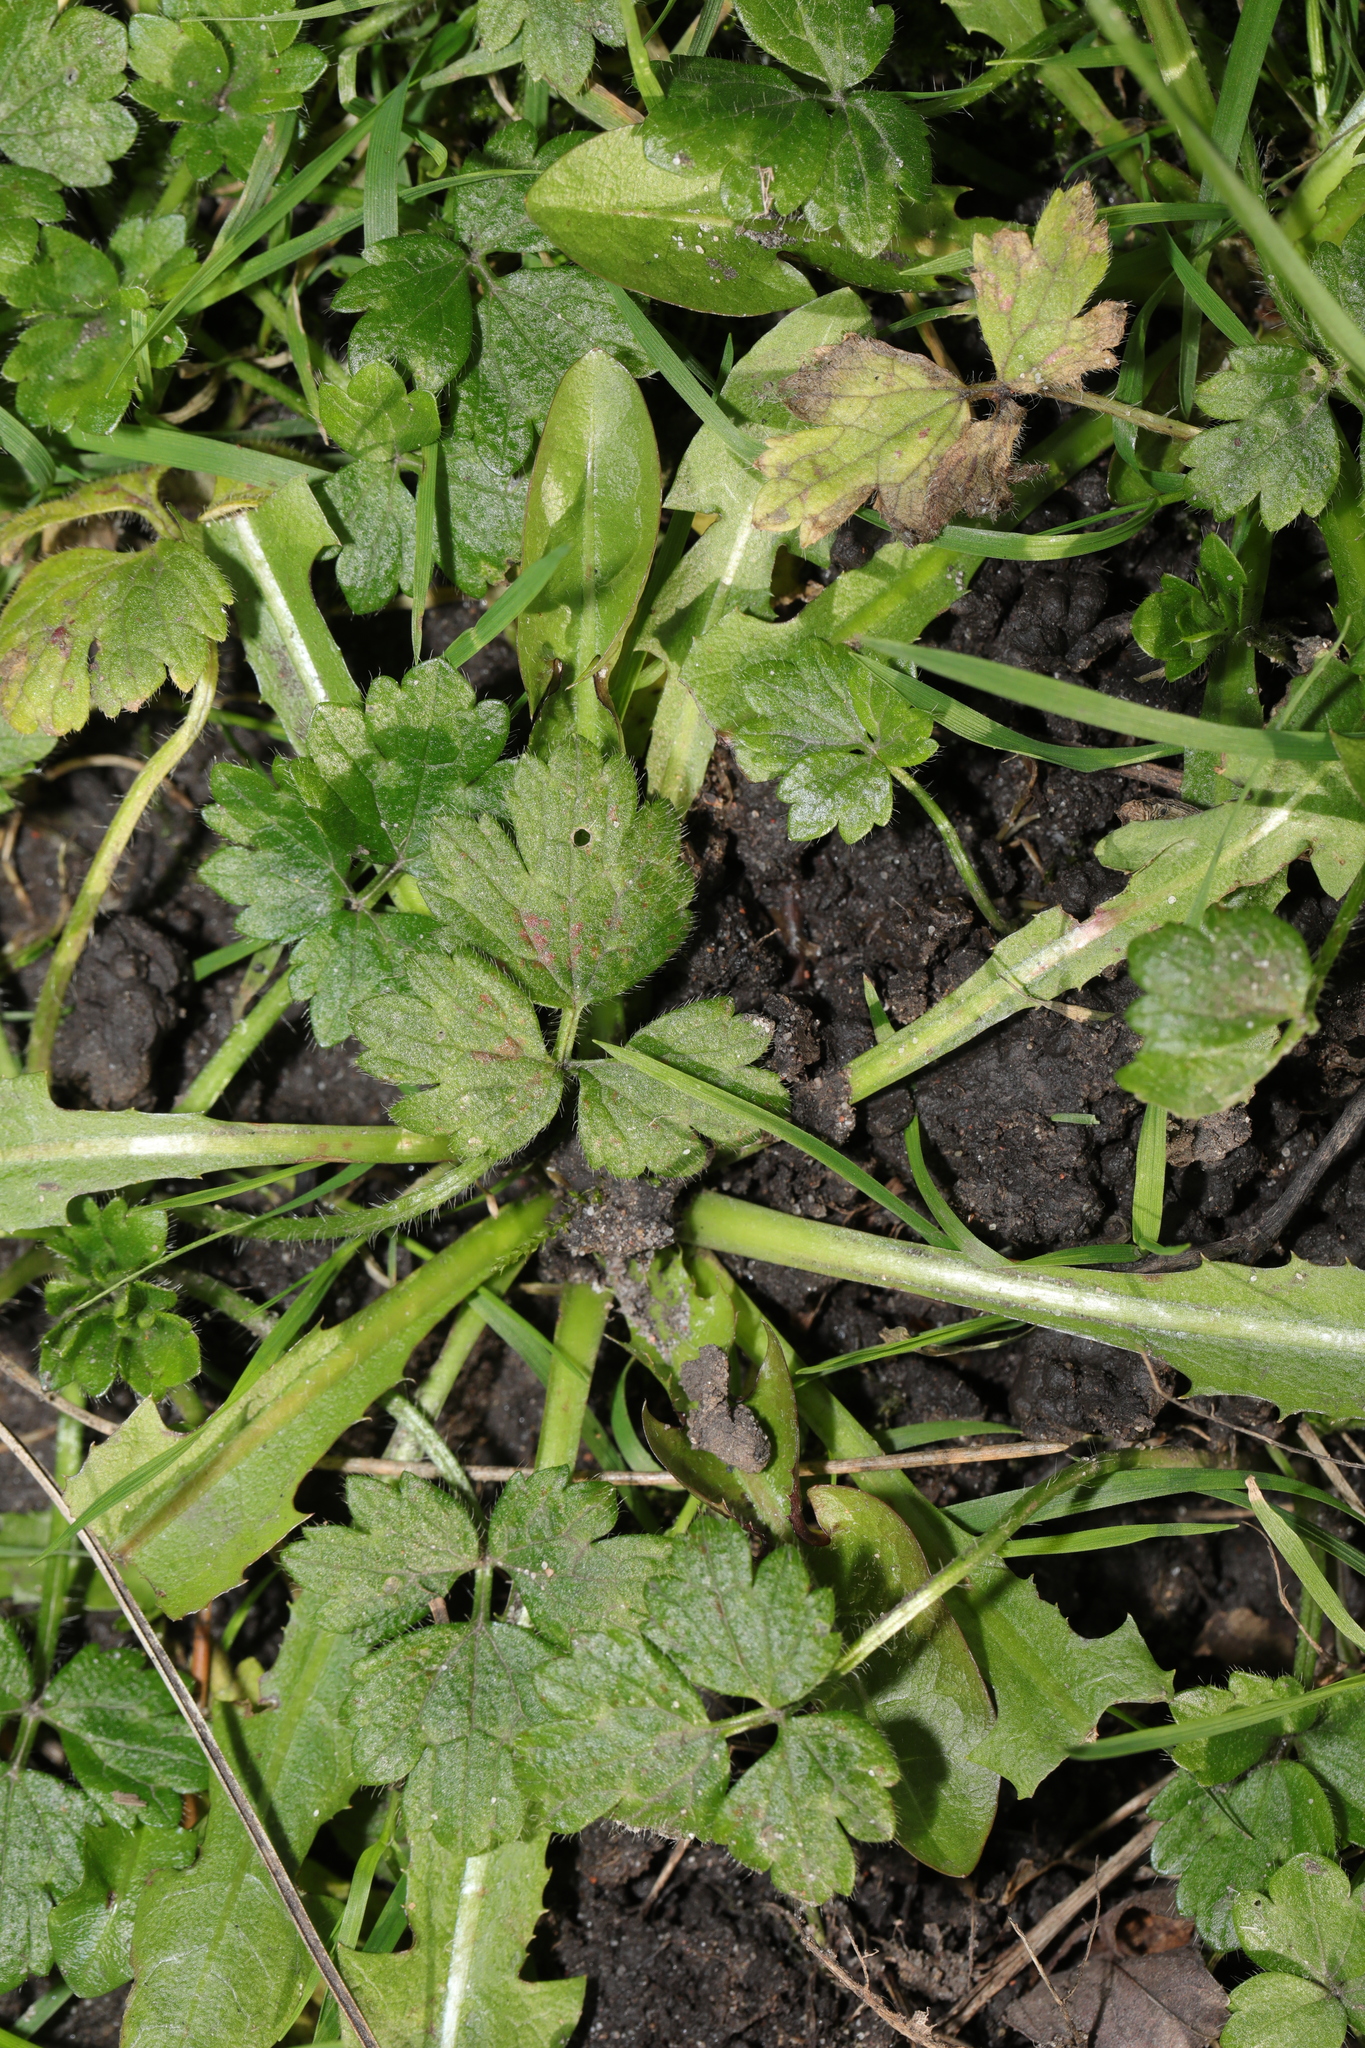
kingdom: Plantae
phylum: Tracheophyta
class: Magnoliopsida
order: Ranunculales
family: Ranunculaceae
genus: Ranunculus
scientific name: Ranunculus repens
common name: Creeping buttercup
